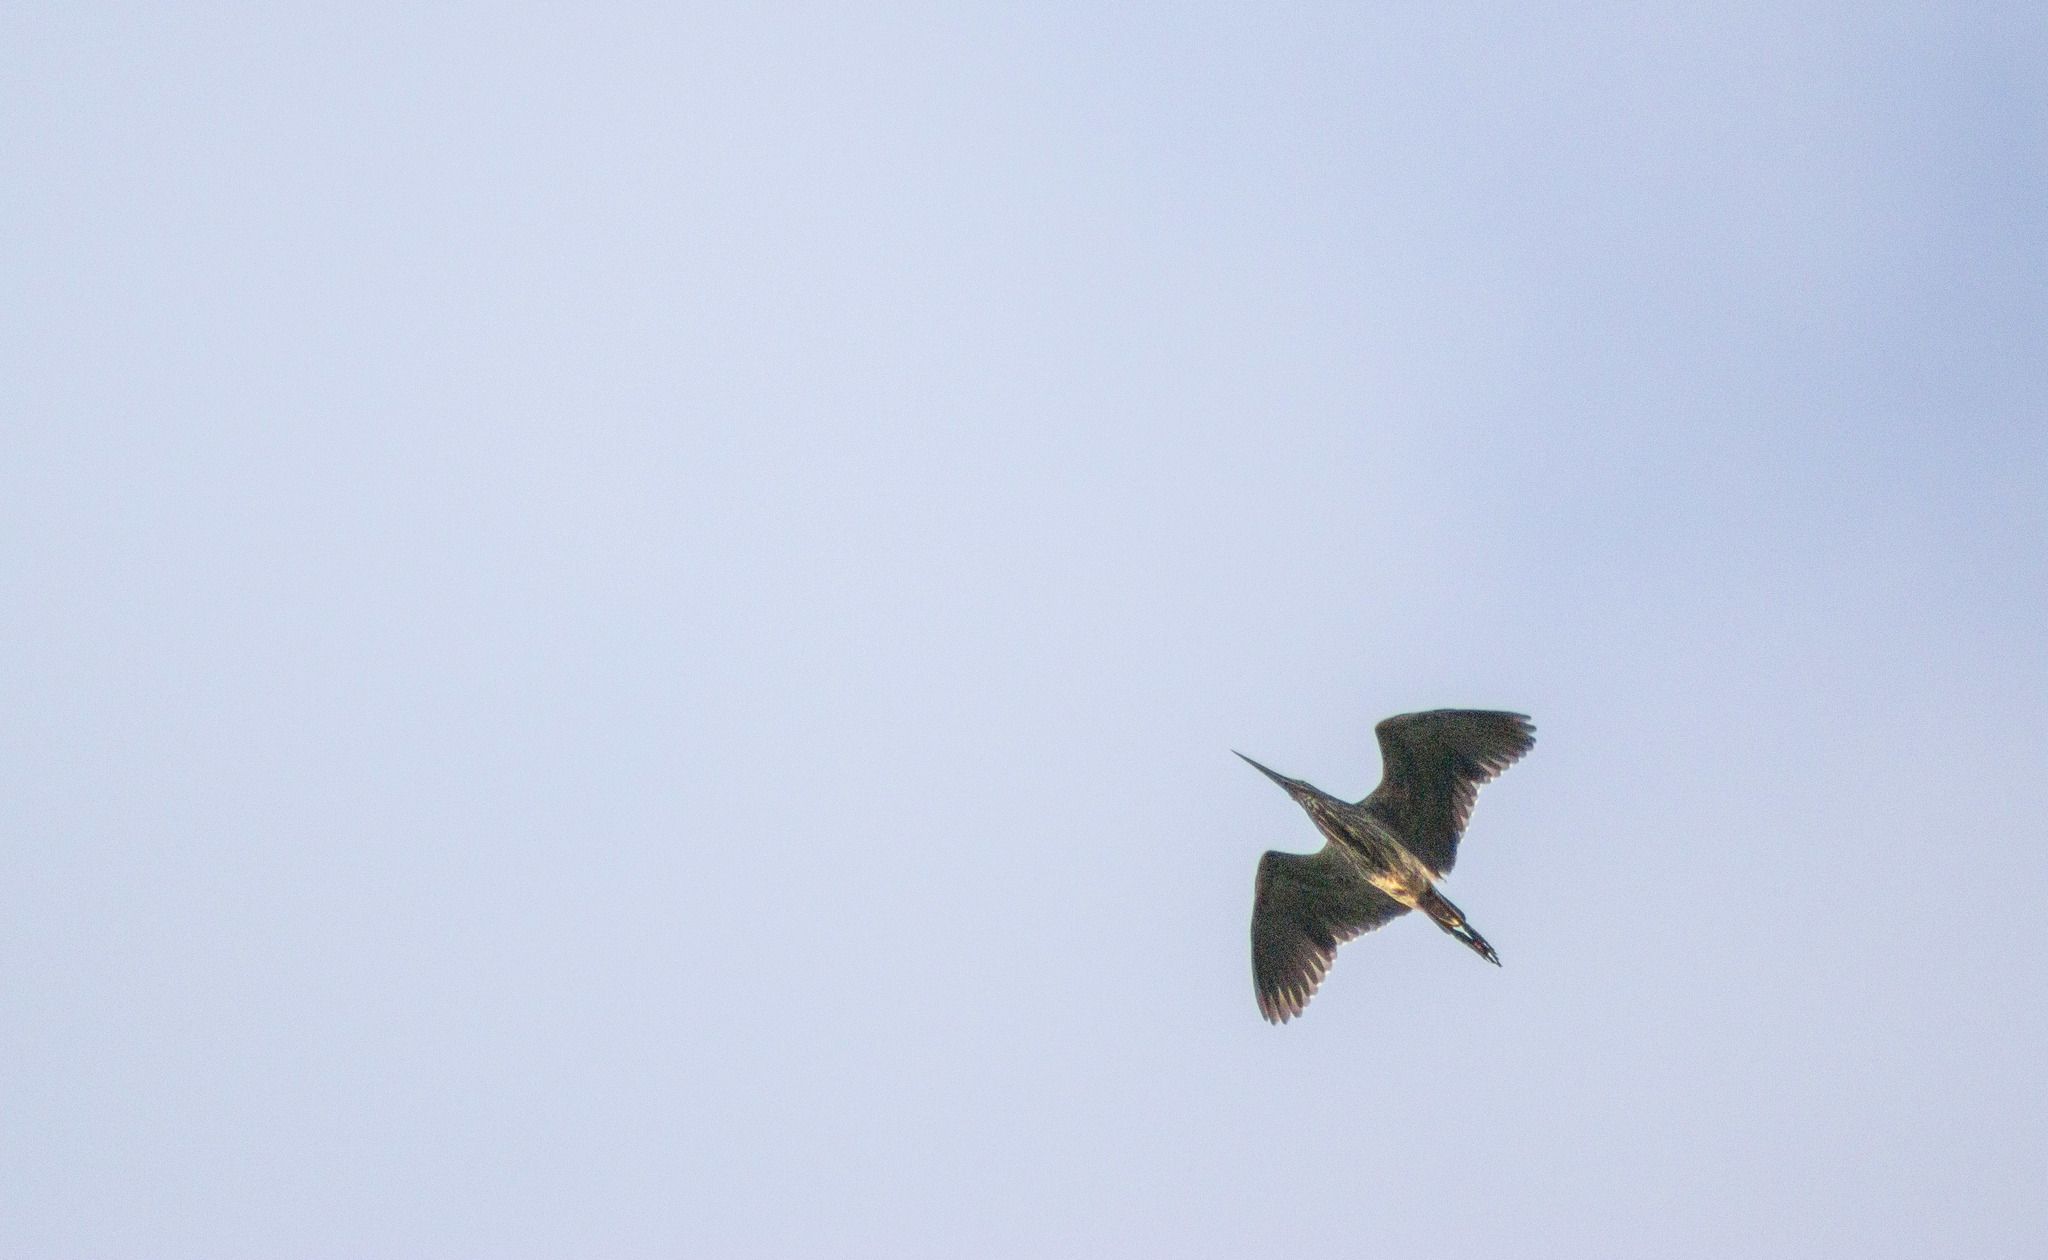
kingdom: Animalia
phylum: Chordata
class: Aves
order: Pelecaniformes
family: Ardeidae
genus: Tigrisoma
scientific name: Tigrisoma lineatum
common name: Rufescent tiger-heron
